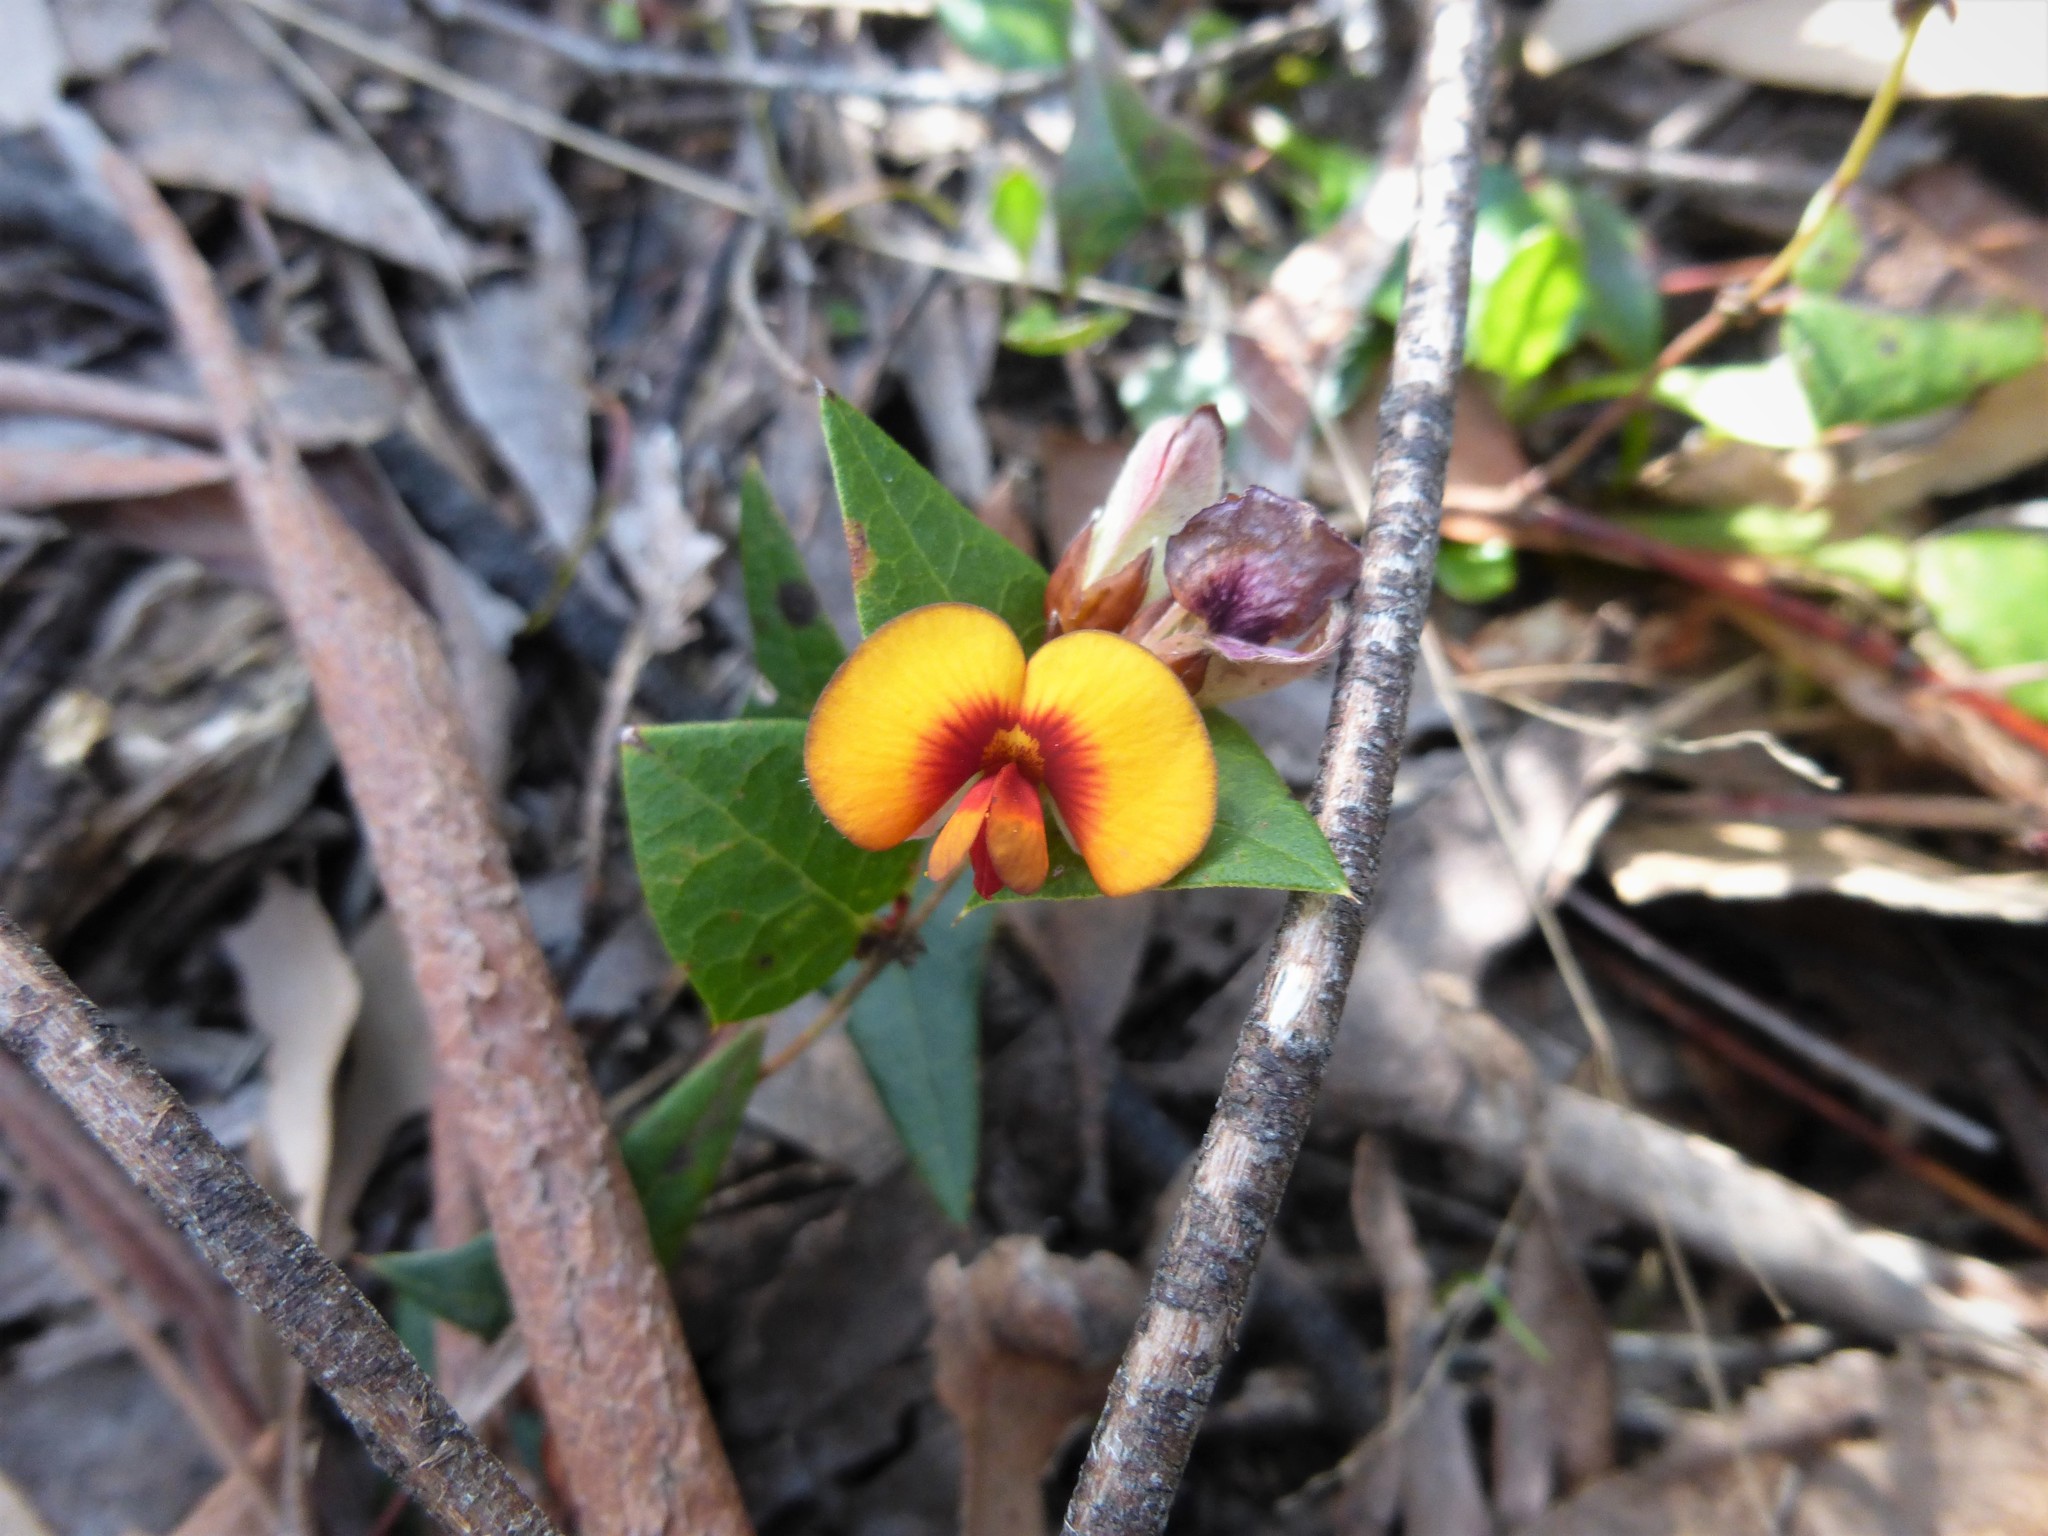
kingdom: Plantae
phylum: Tracheophyta
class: Magnoliopsida
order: Fabales
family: Fabaceae
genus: Platylobium
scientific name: Platylobium obtusangulum
